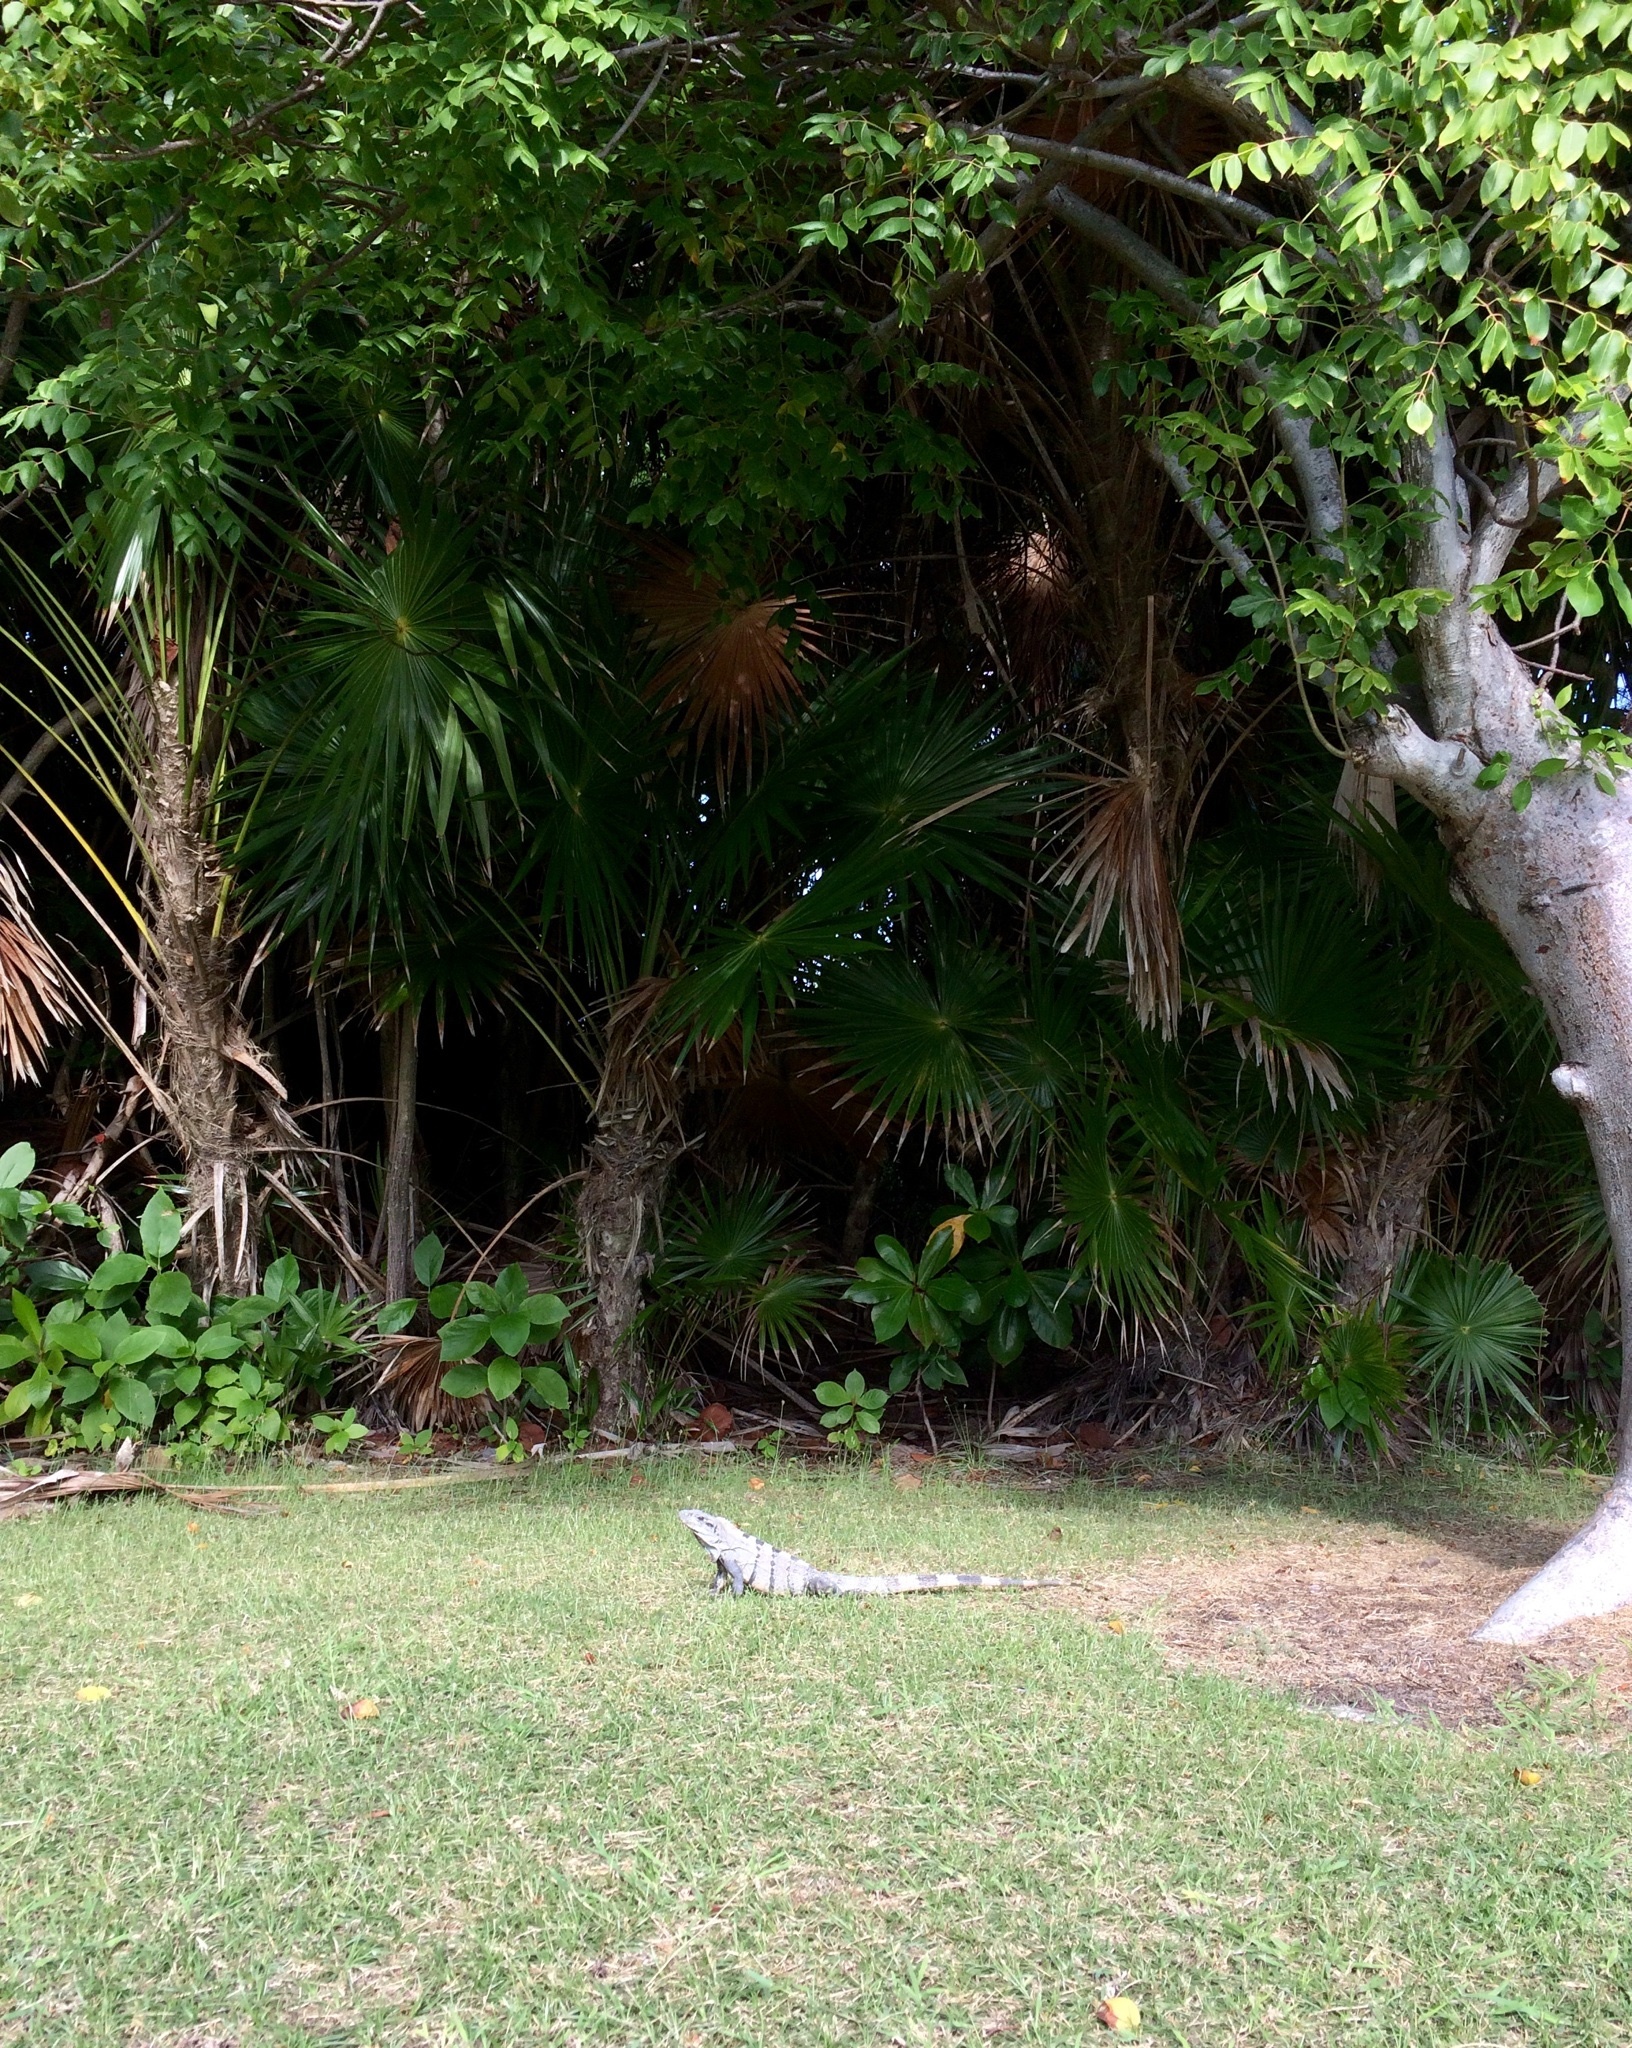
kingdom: Animalia
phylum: Chordata
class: Squamata
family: Iguanidae
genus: Ctenosaura
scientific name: Ctenosaura similis
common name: Black spiny-tailed iguana
